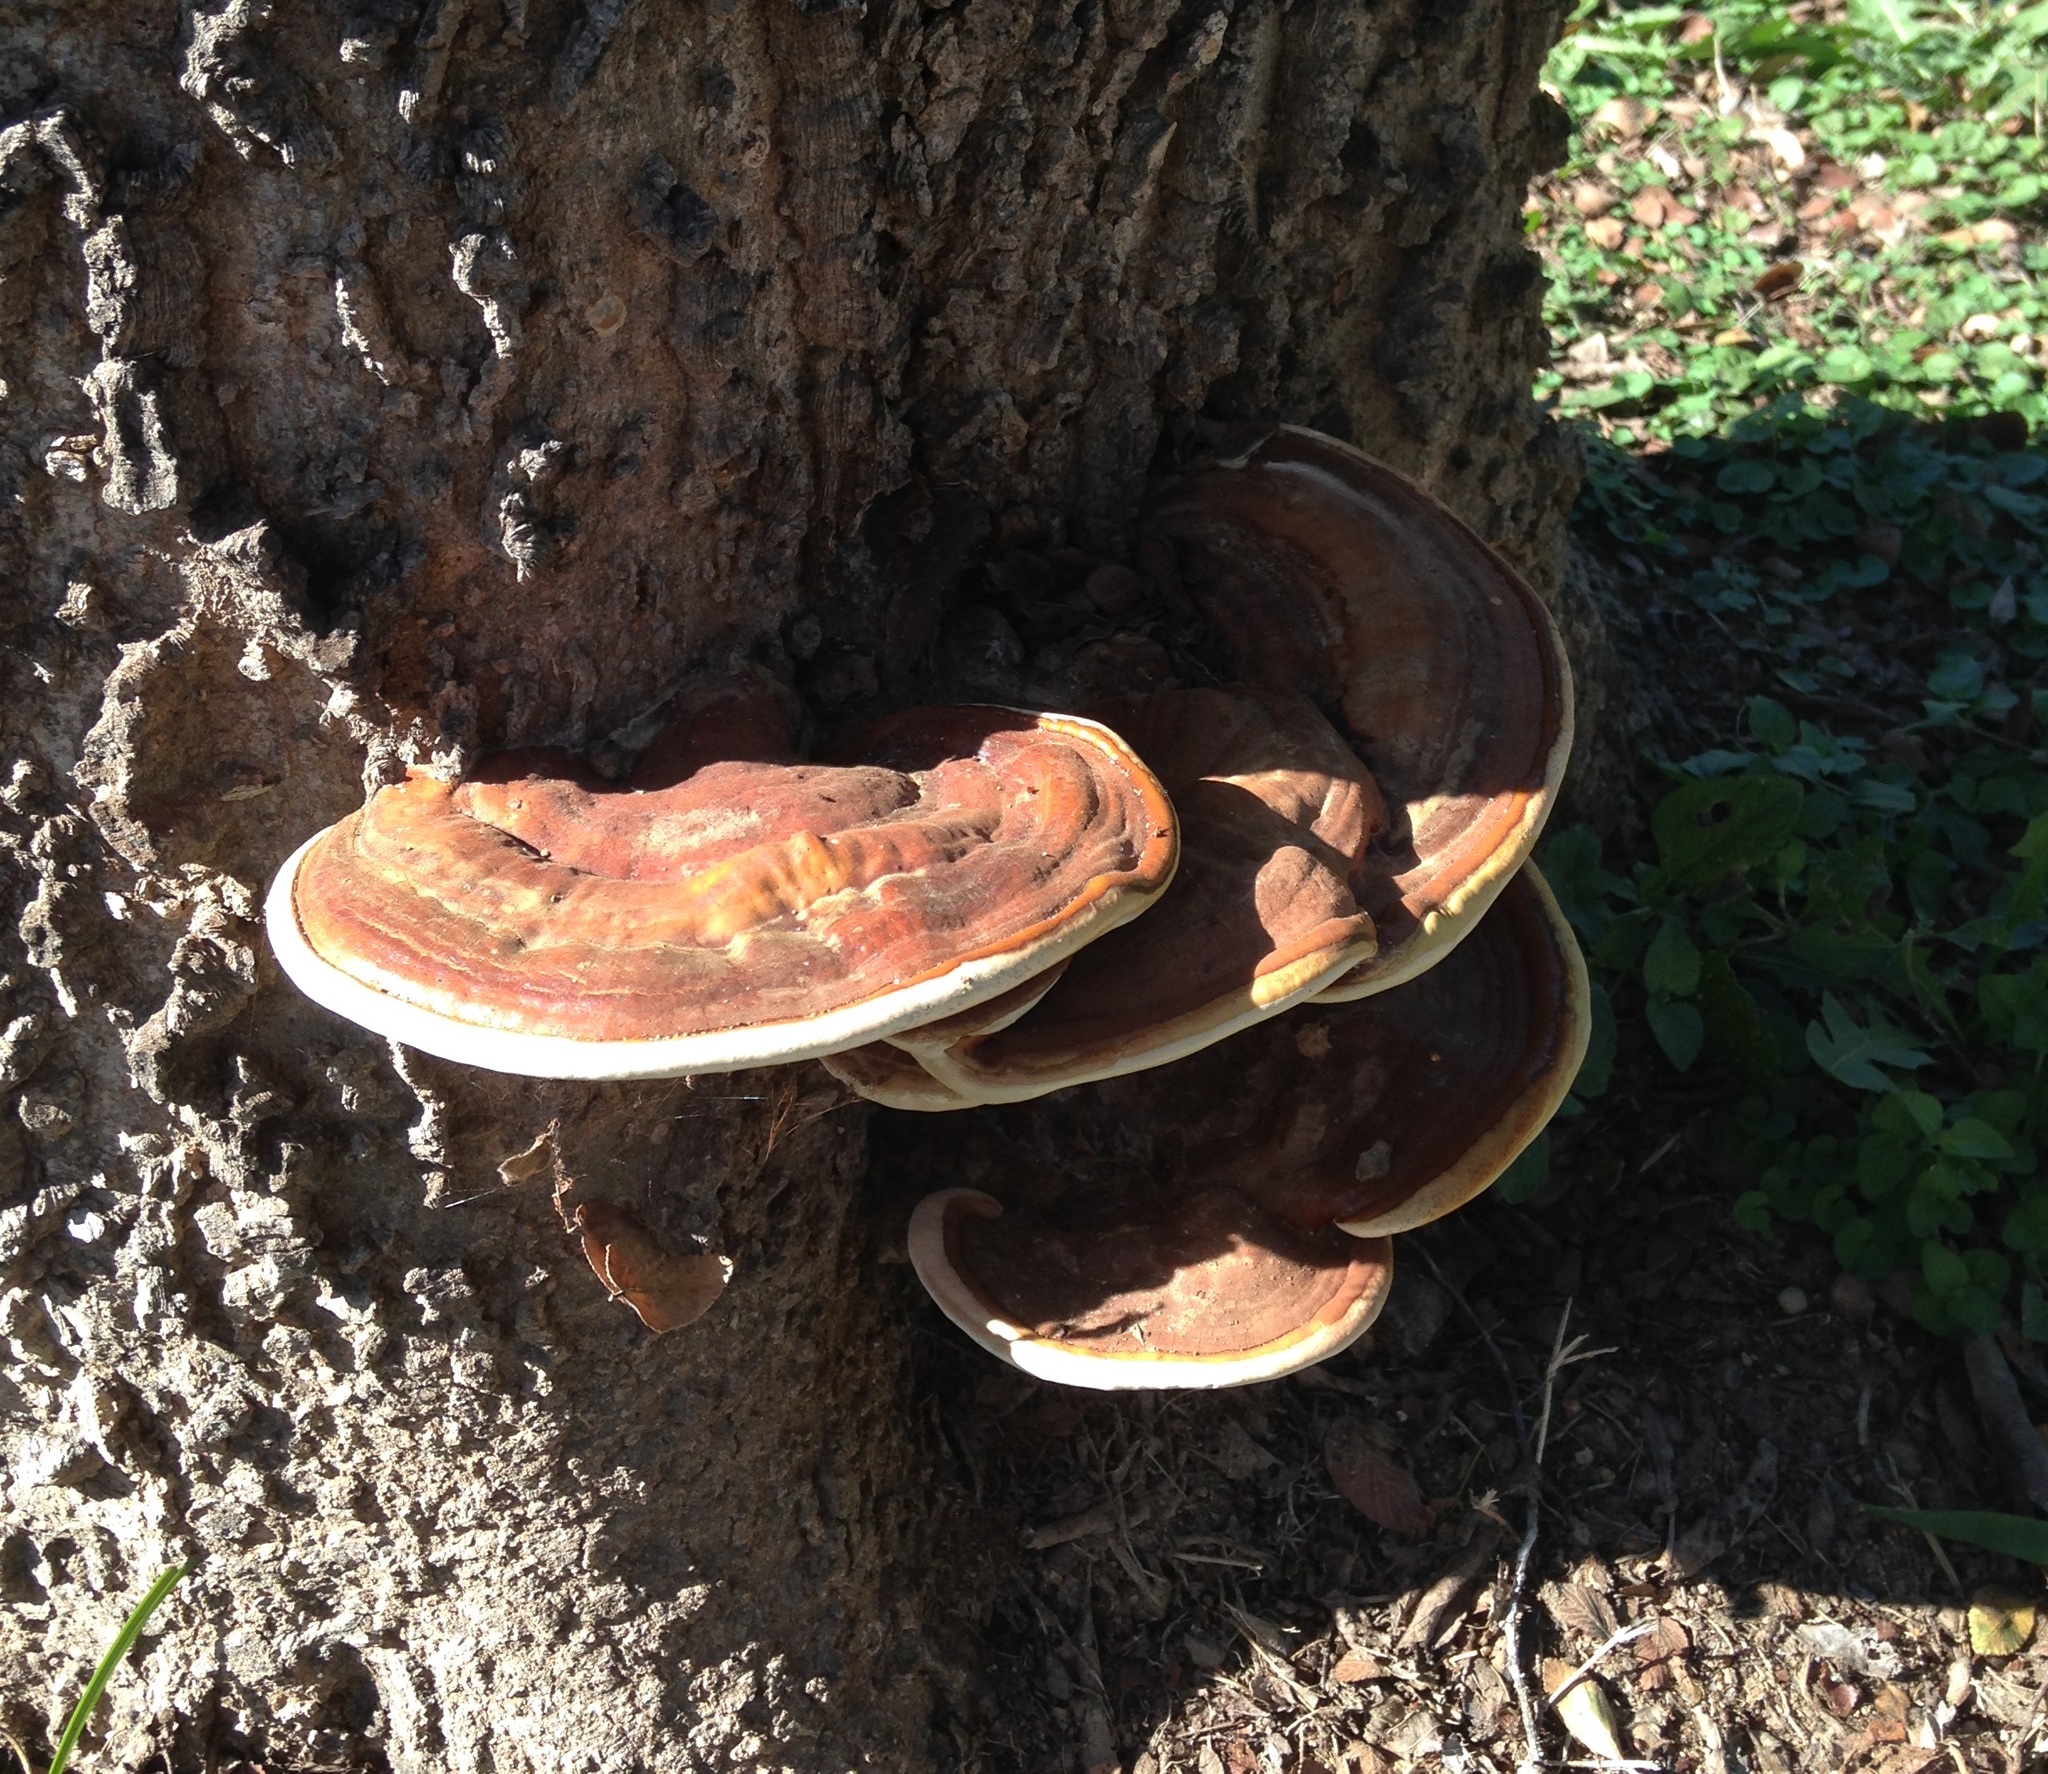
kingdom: Fungi
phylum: Basidiomycota
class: Agaricomycetes
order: Polyporales
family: Polyporaceae
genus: Ganoderma
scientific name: Ganoderma resinaceum
